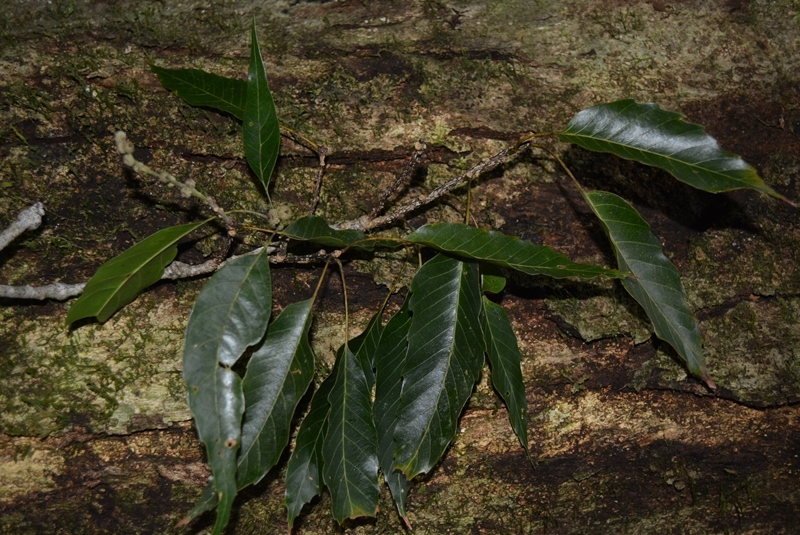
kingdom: Plantae
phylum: Tracheophyta
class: Magnoliopsida
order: Fagales
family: Fagaceae
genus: Quercus
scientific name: Quercus corrugata
